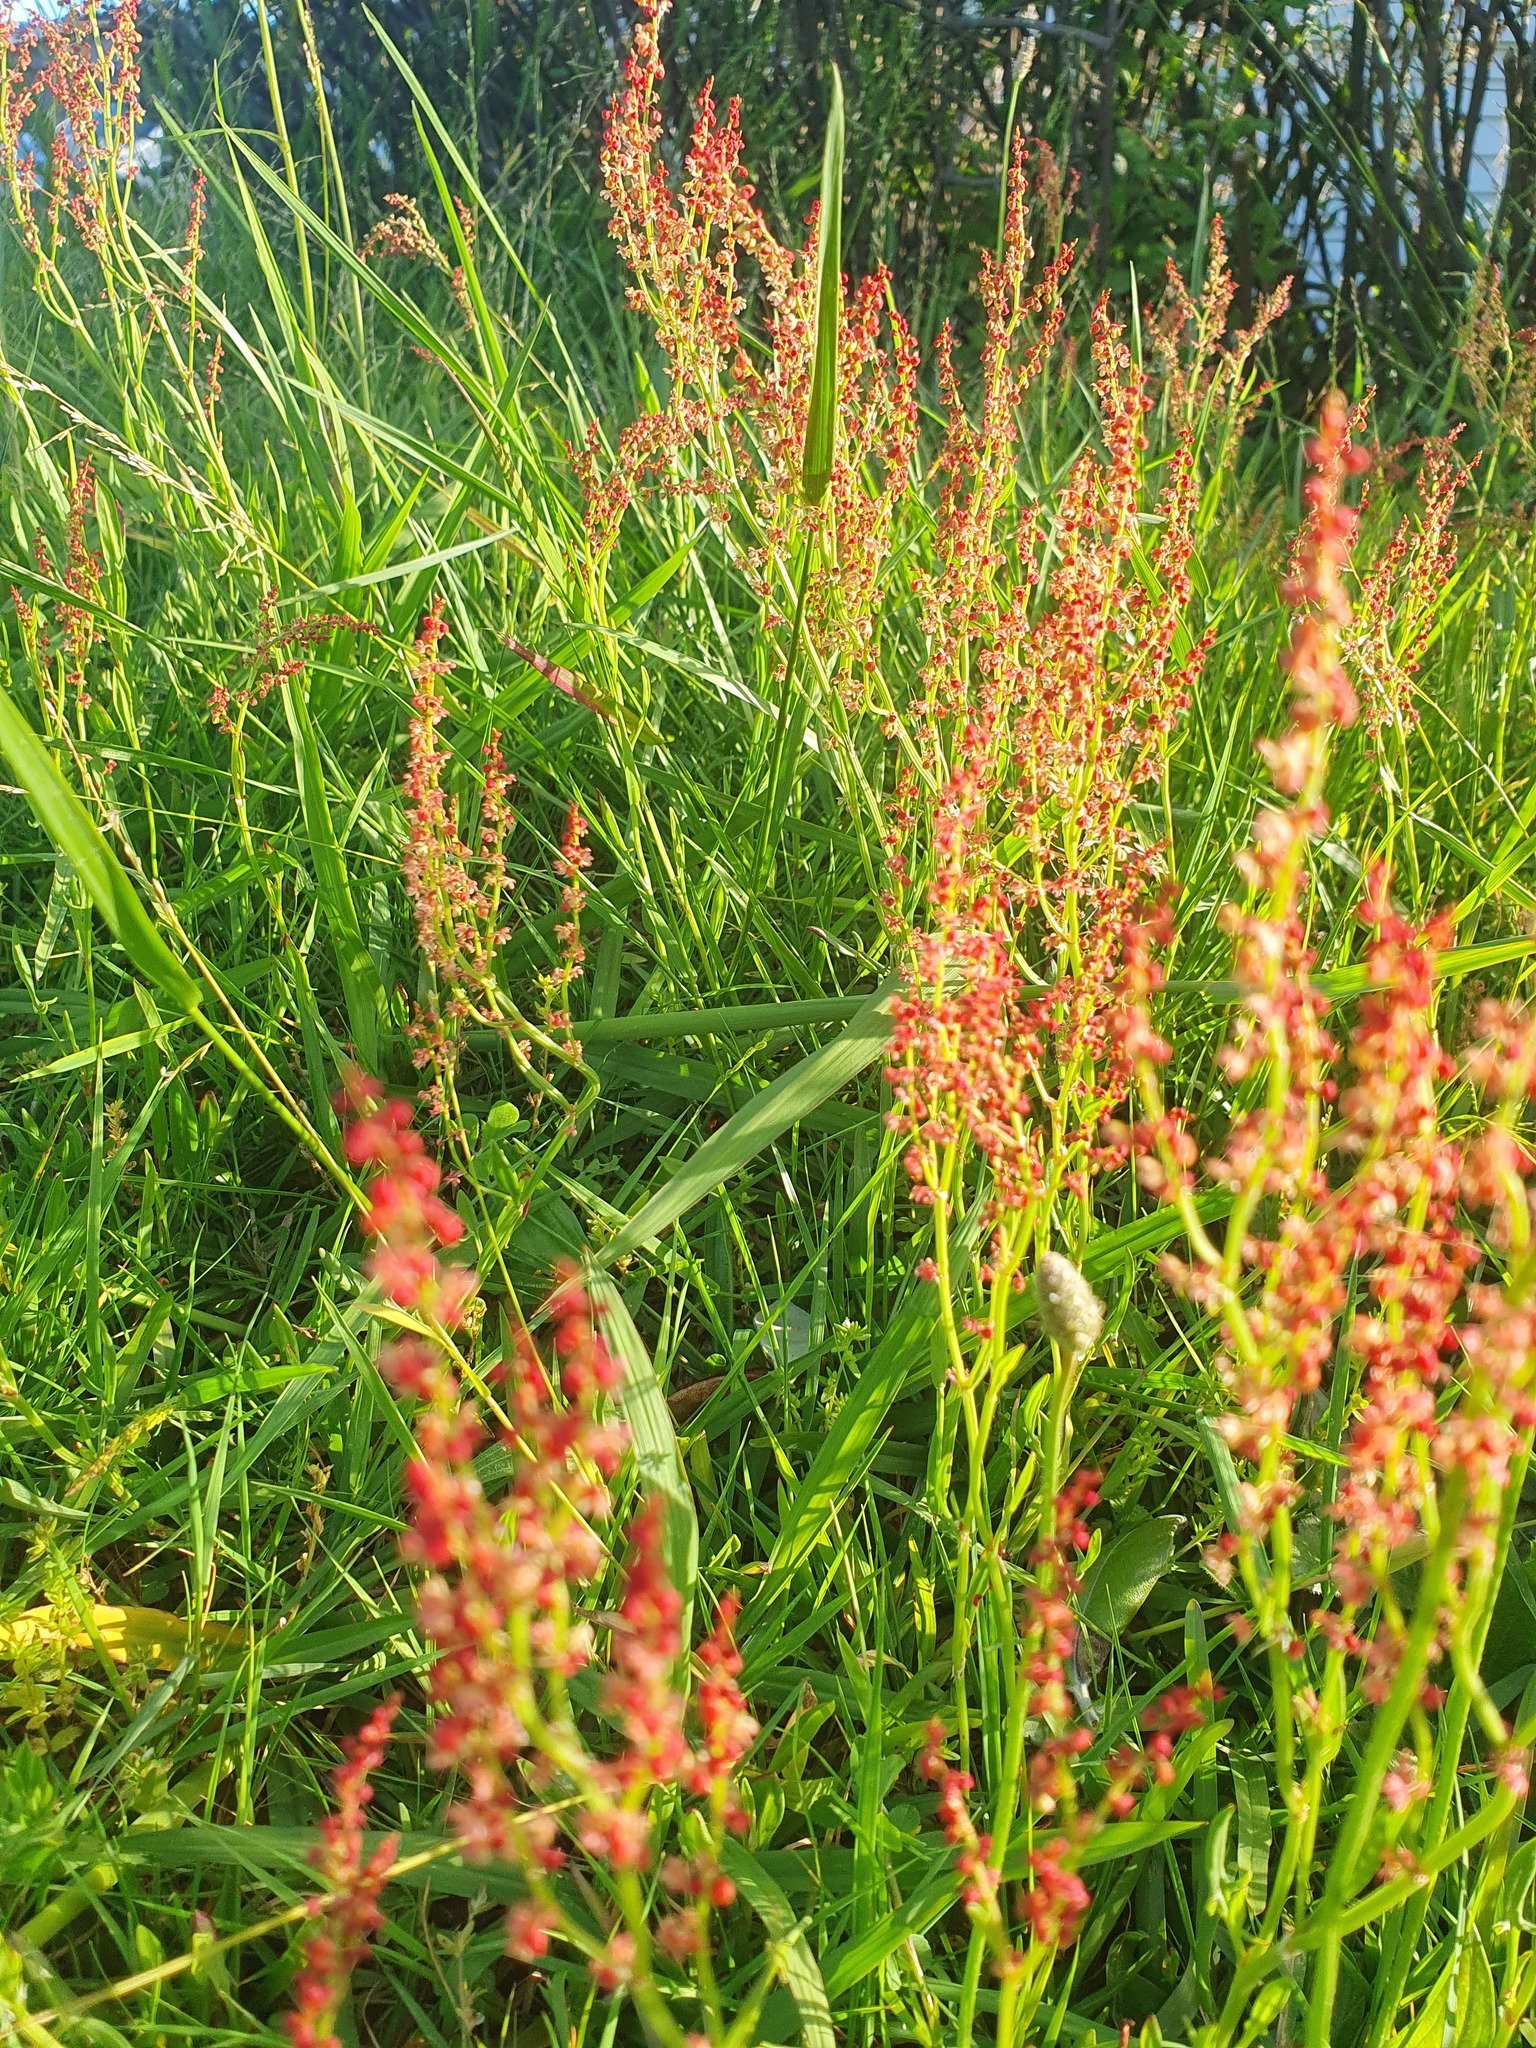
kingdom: Plantae
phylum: Tracheophyta
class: Magnoliopsida
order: Caryophyllales
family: Polygonaceae
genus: Rumex
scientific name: Rumex acetosella
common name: Common sheep sorrel
